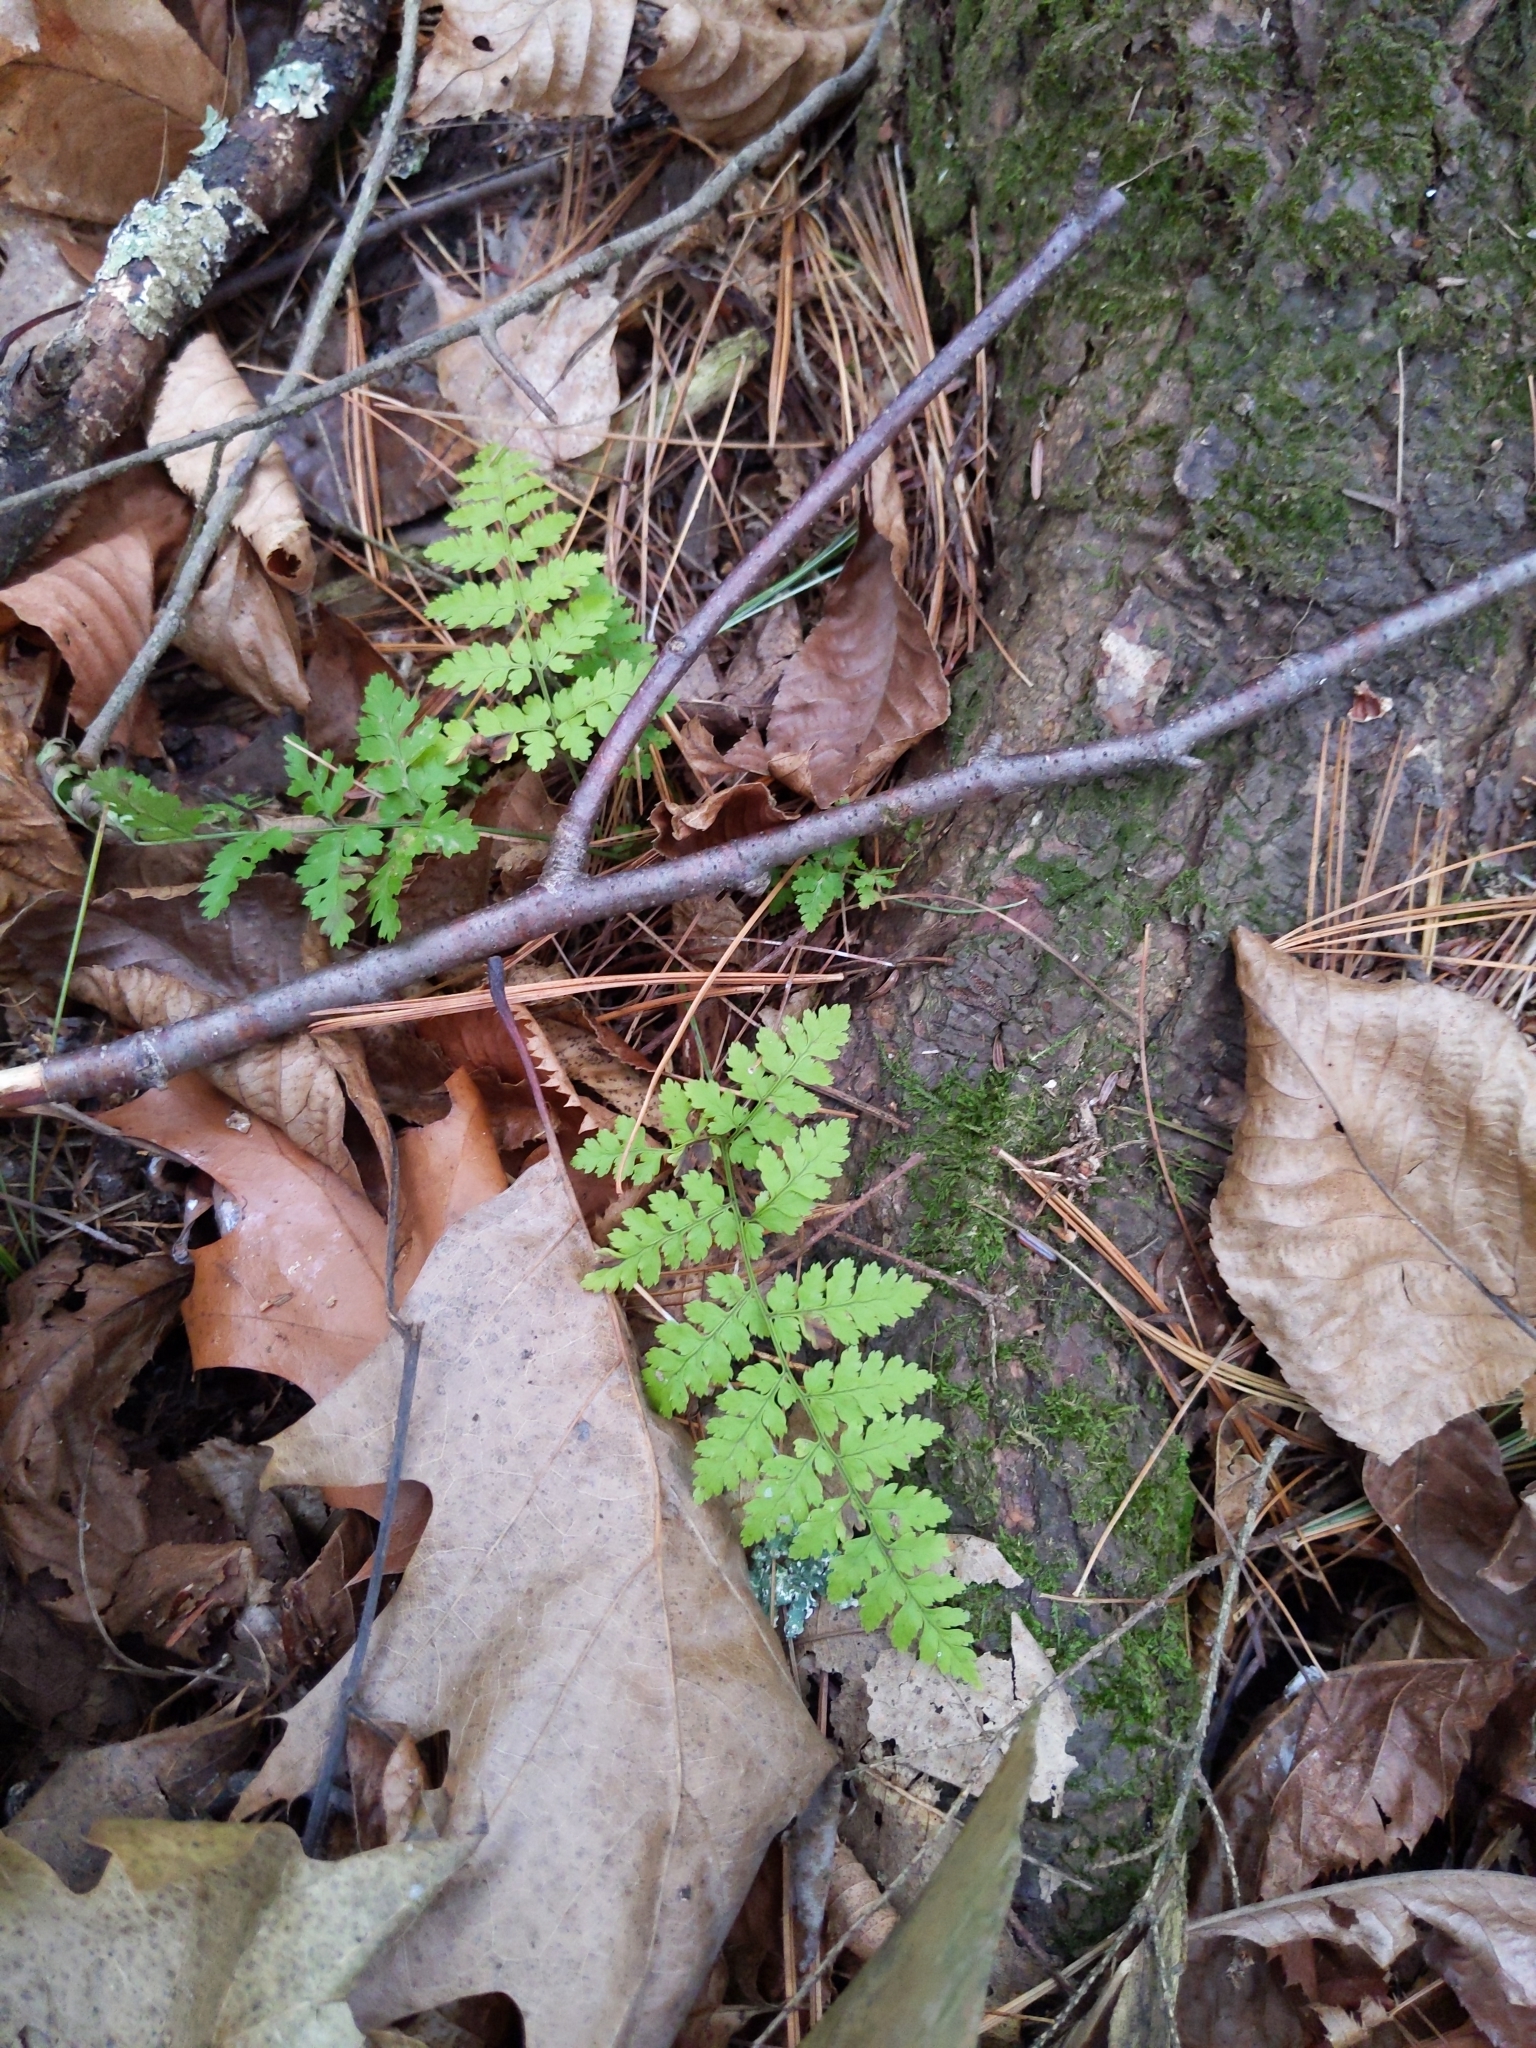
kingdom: Plantae
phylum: Tracheophyta
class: Polypodiopsida
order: Polypodiales
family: Dryopteridaceae
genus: Dryopteris
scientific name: Dryopteris intermedia
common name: Evergreen wood fern
